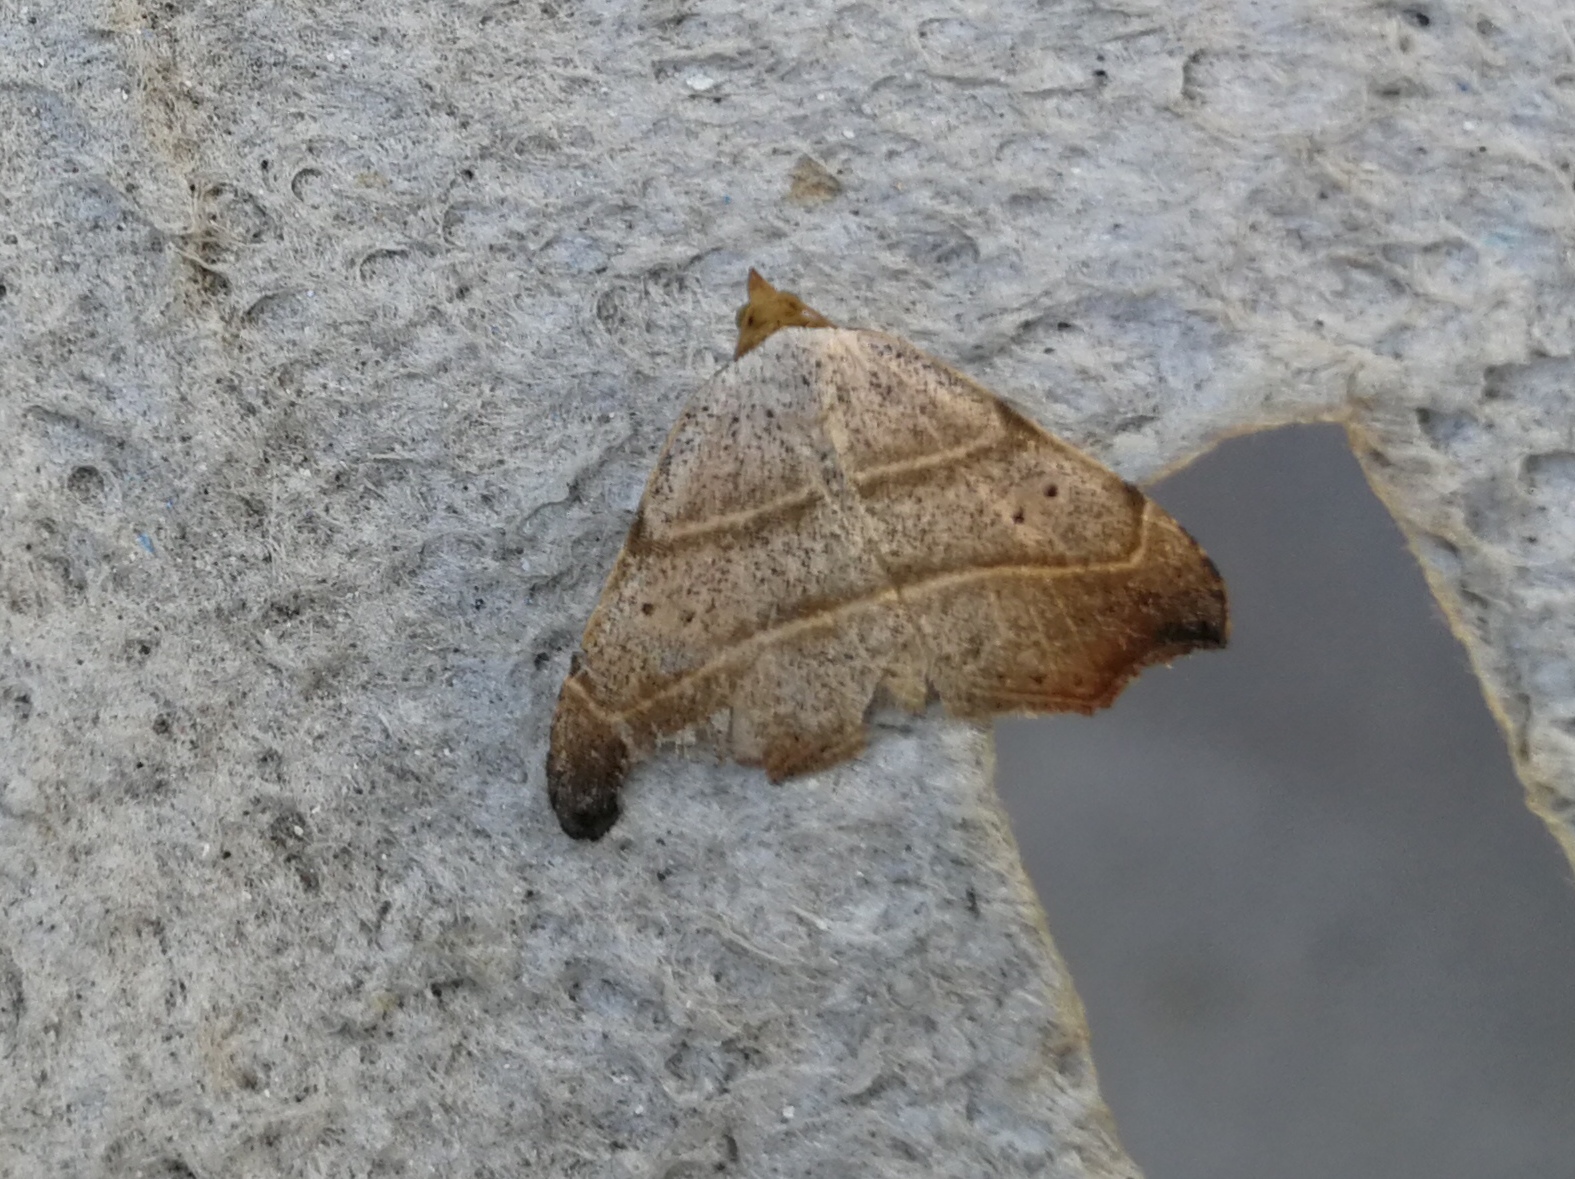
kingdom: Animalia
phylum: Arthropoda
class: Insecta
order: Lepidoptera
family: Erebidae
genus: Laspeyria
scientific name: Laspeyria flexula
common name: Beautiful hook-tip
